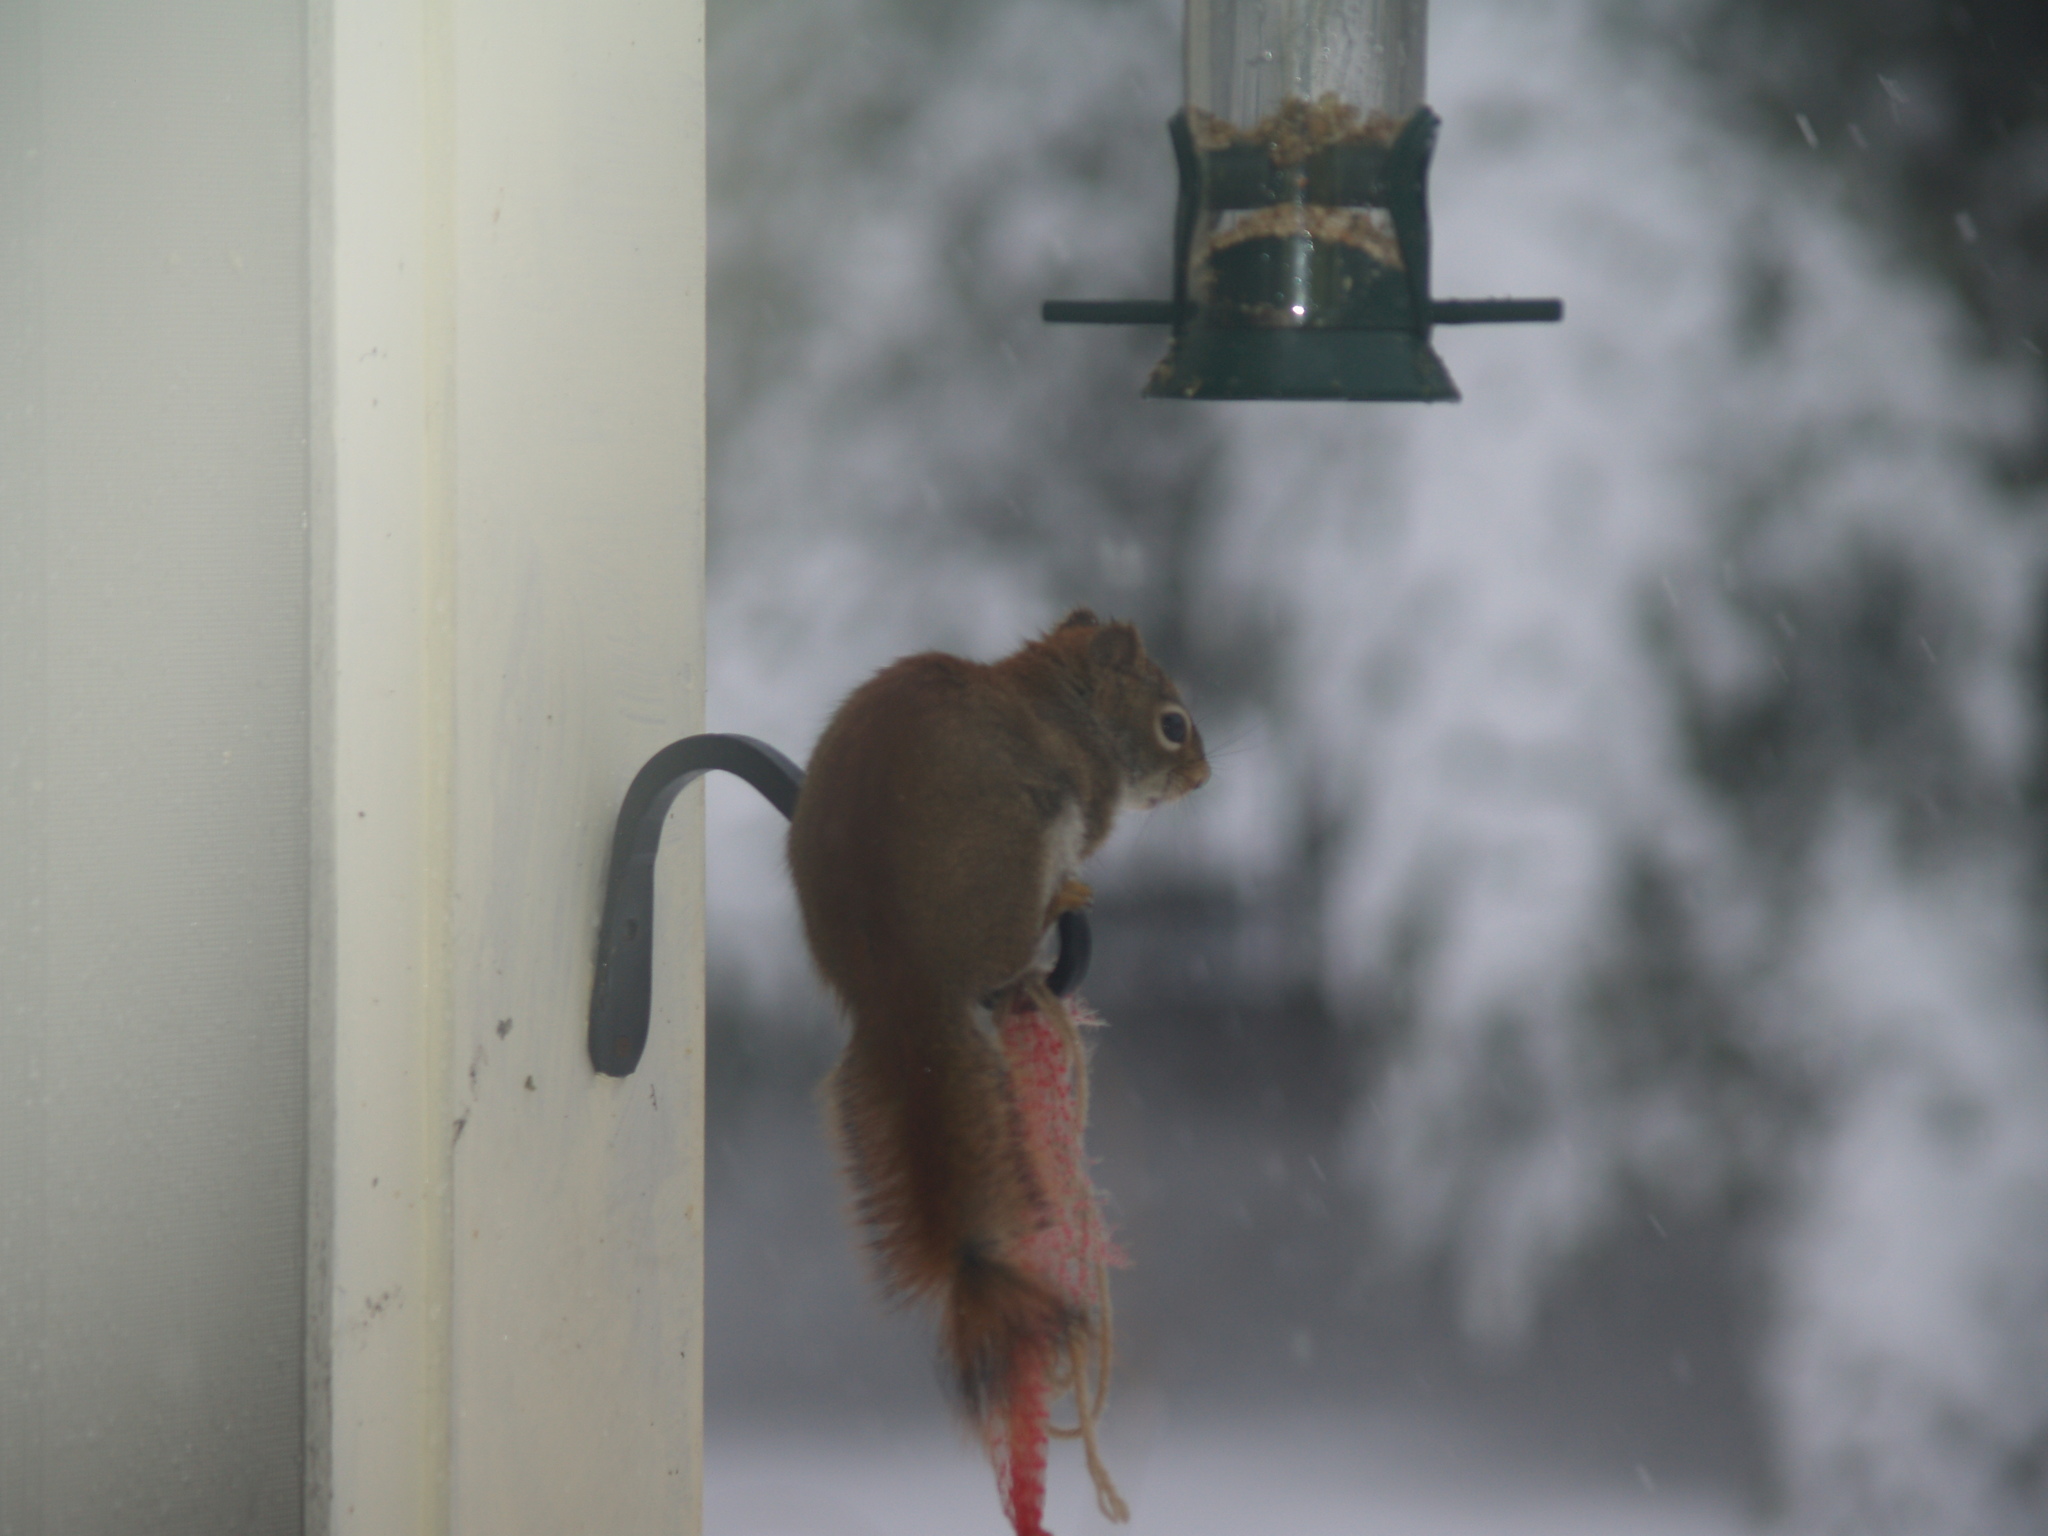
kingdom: Animalia
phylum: Chordata
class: Mammalia
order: Rodentia
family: Sciuridae
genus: Tamiasciurus
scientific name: Tamiasciurus hudsonicus
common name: Red squirrel
